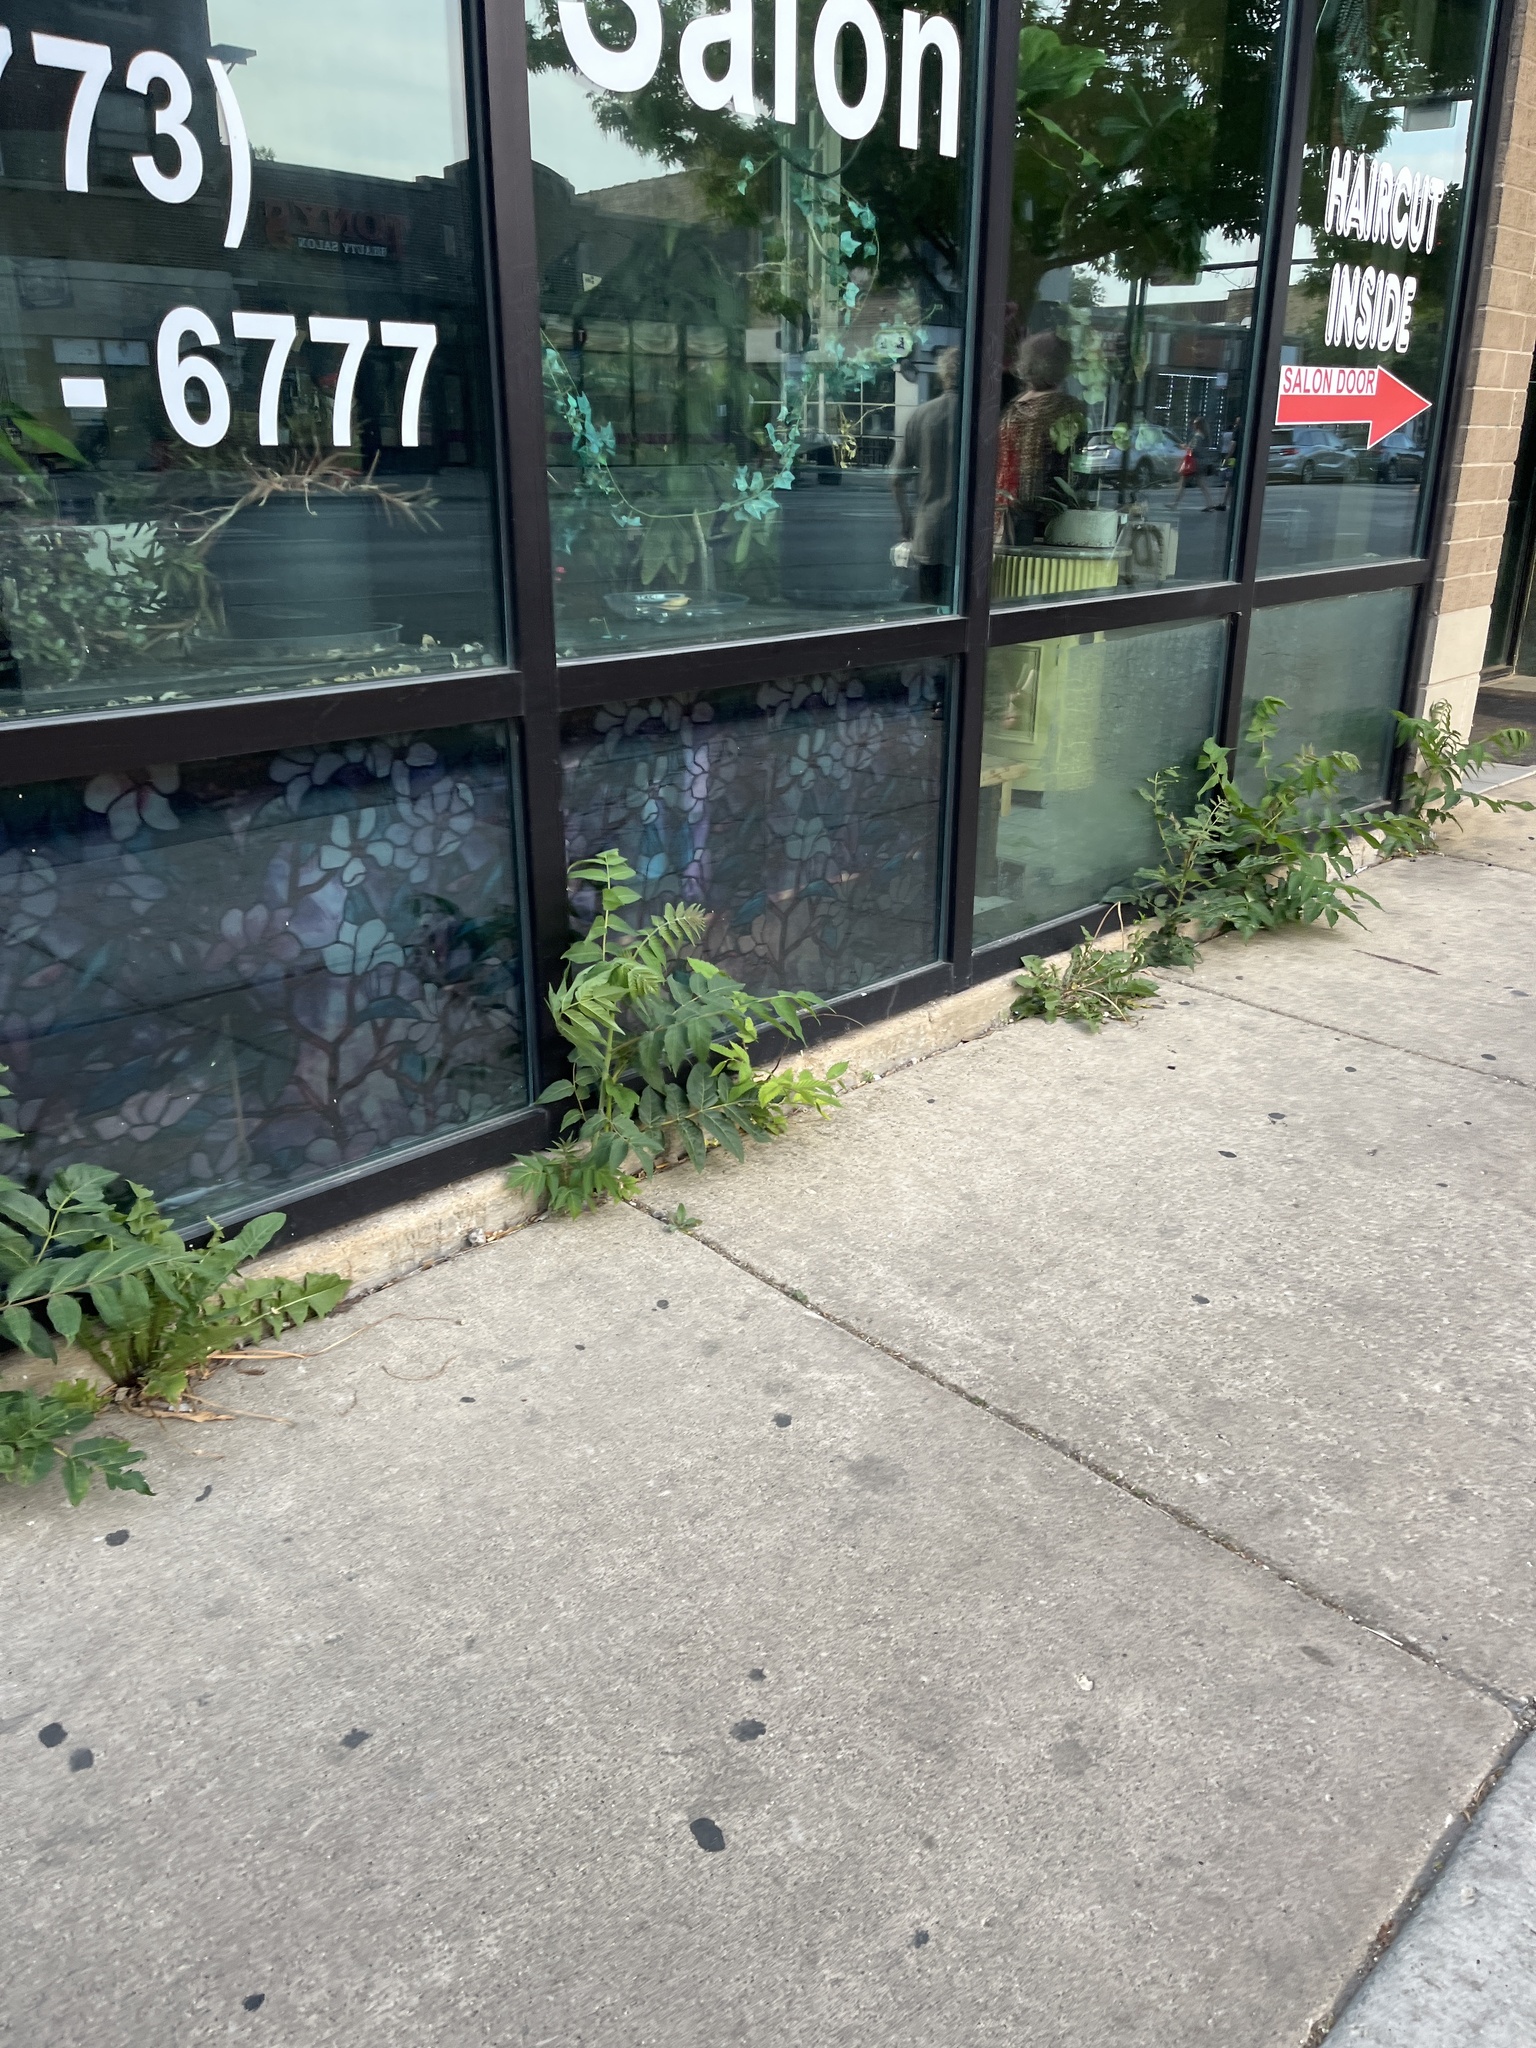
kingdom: Plantae
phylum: Tracheophyta
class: Magnoliopsida
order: Sapindales
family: Simaroubaceae
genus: Ailanthus
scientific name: Ailanthus altissima
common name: Tree-of-heaven
